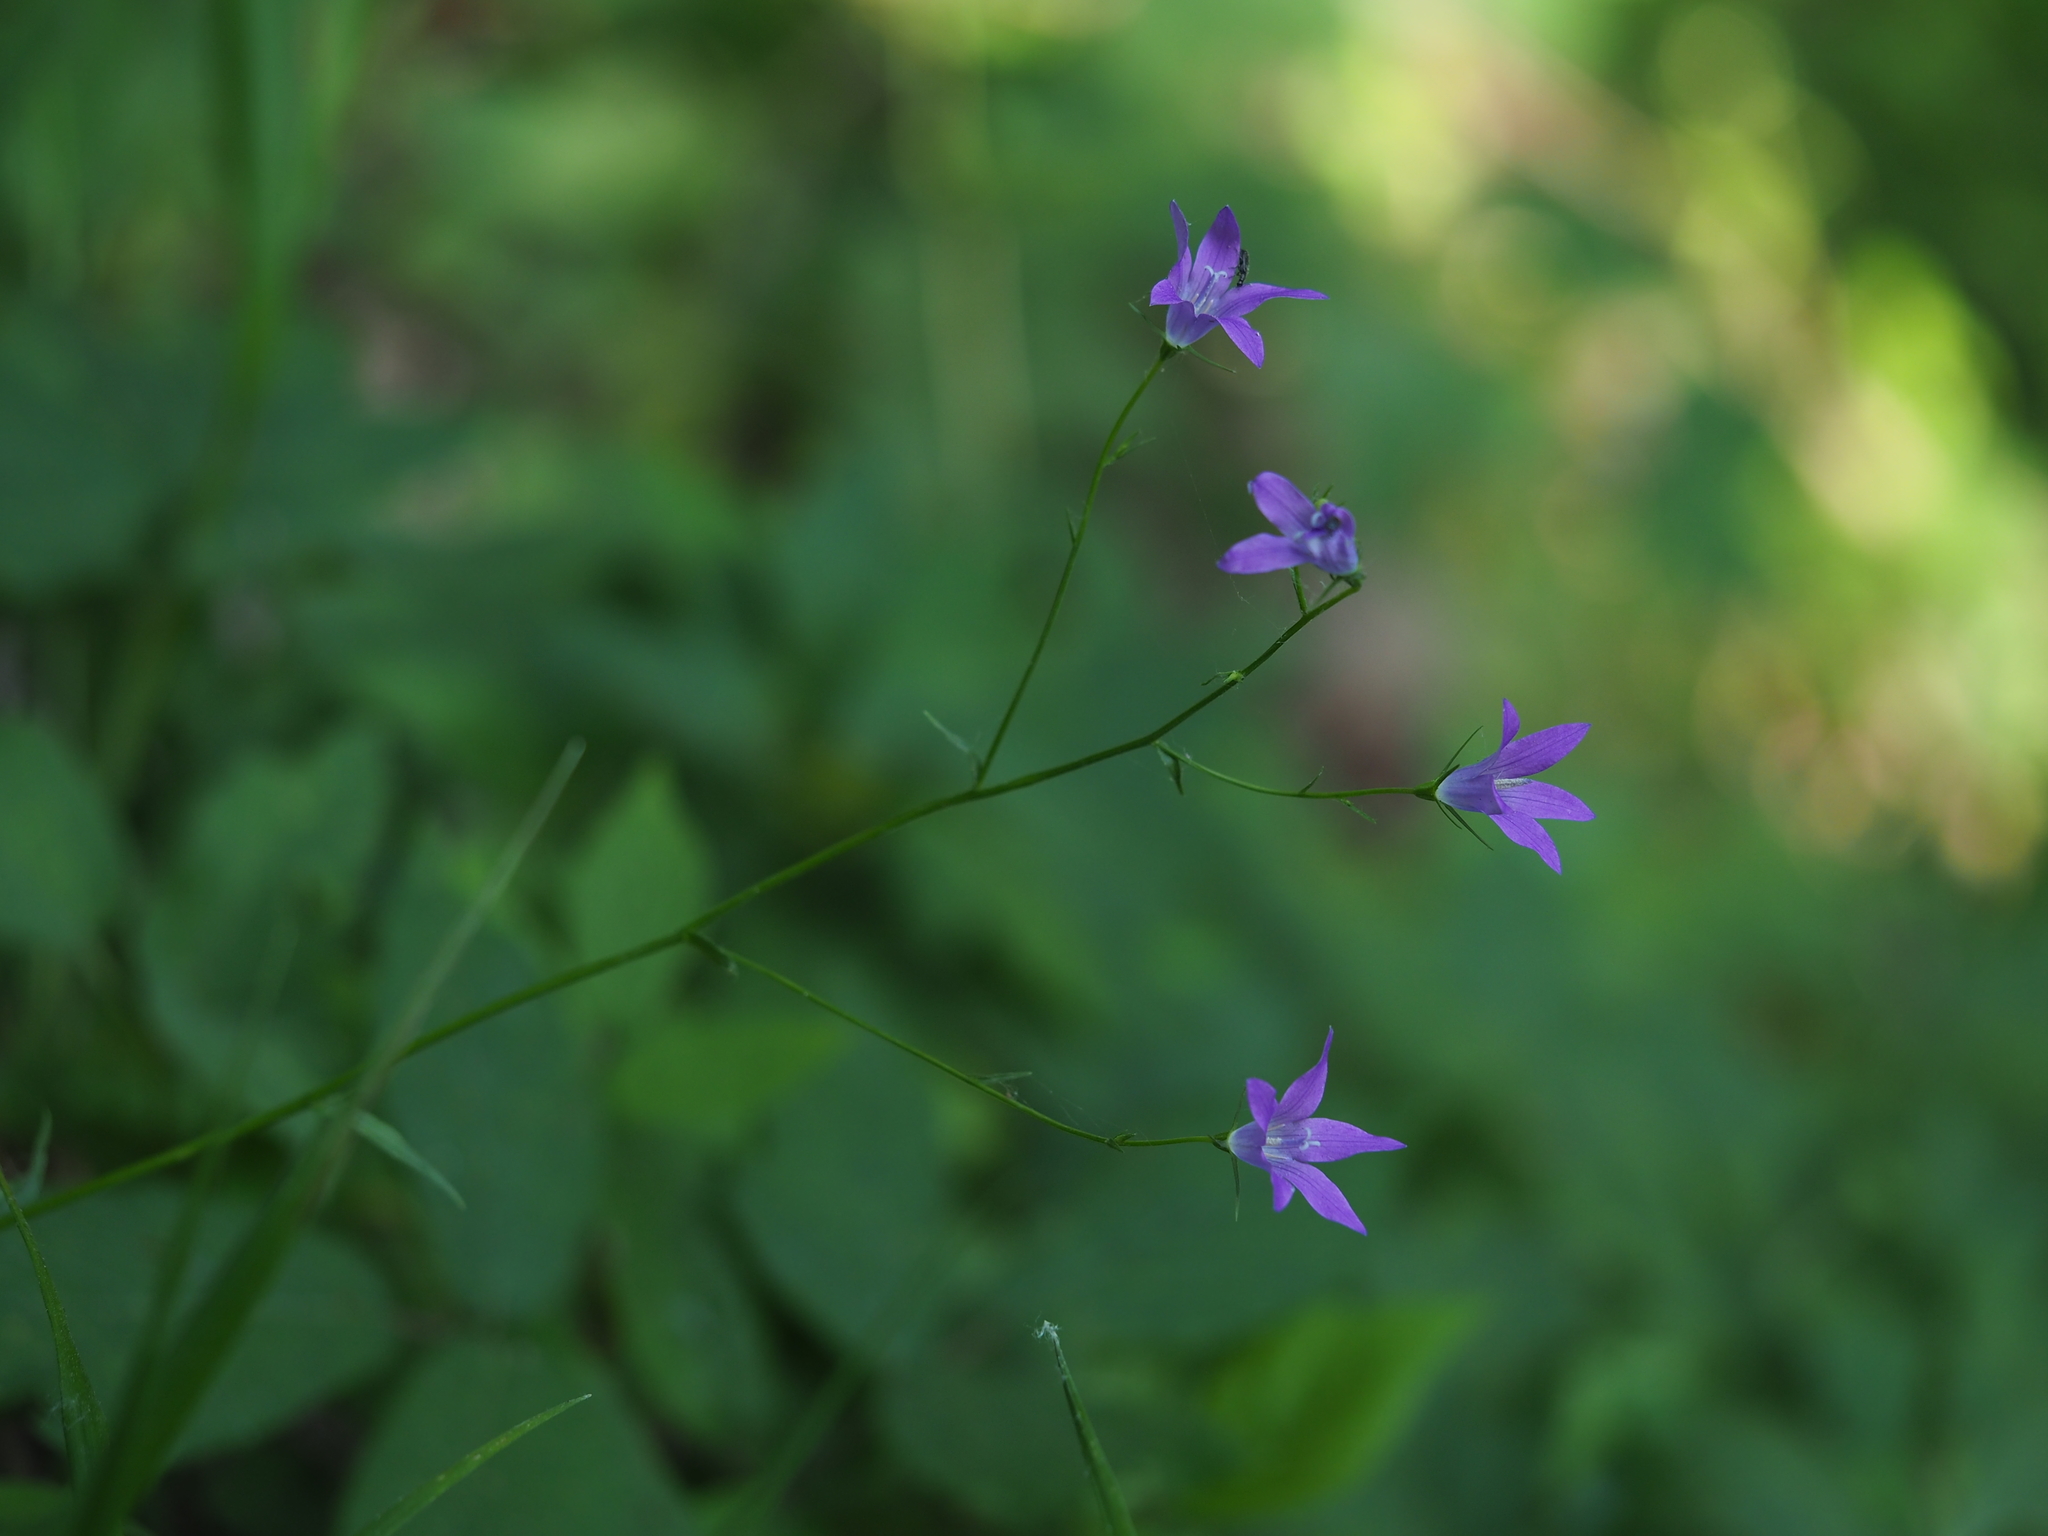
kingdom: Plantae
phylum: Tracheophyta
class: Magnoliopsida
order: Asterales
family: Campanulaceae
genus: Campanula
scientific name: Campanula patula
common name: Spreading bellflower
